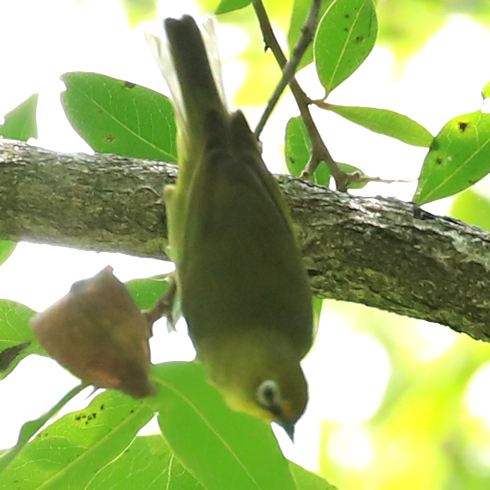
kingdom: Animalia
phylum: Chordata
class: Aves
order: Passeriformes
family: Zosteropidae
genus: Zosterops
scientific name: Zosterops virens
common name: Cape white-eye
